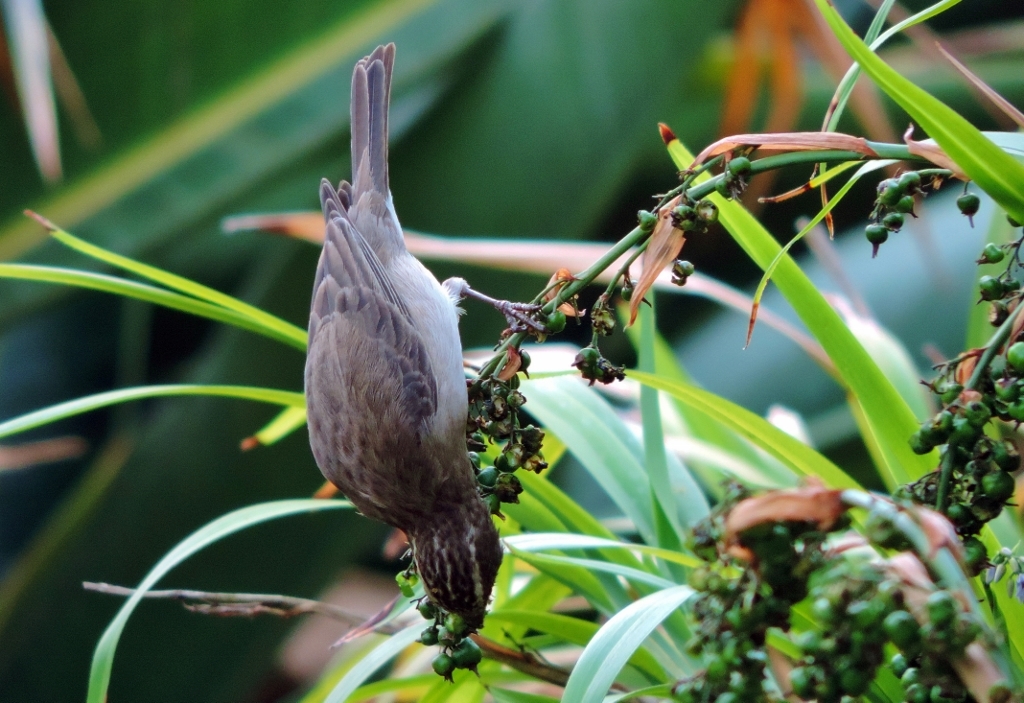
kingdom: Animalia
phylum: Chordata
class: Aves
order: Passeriformes
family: Fringillidae
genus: Crithagra
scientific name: Crithagra gularis
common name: Streaky-headed seedeater
